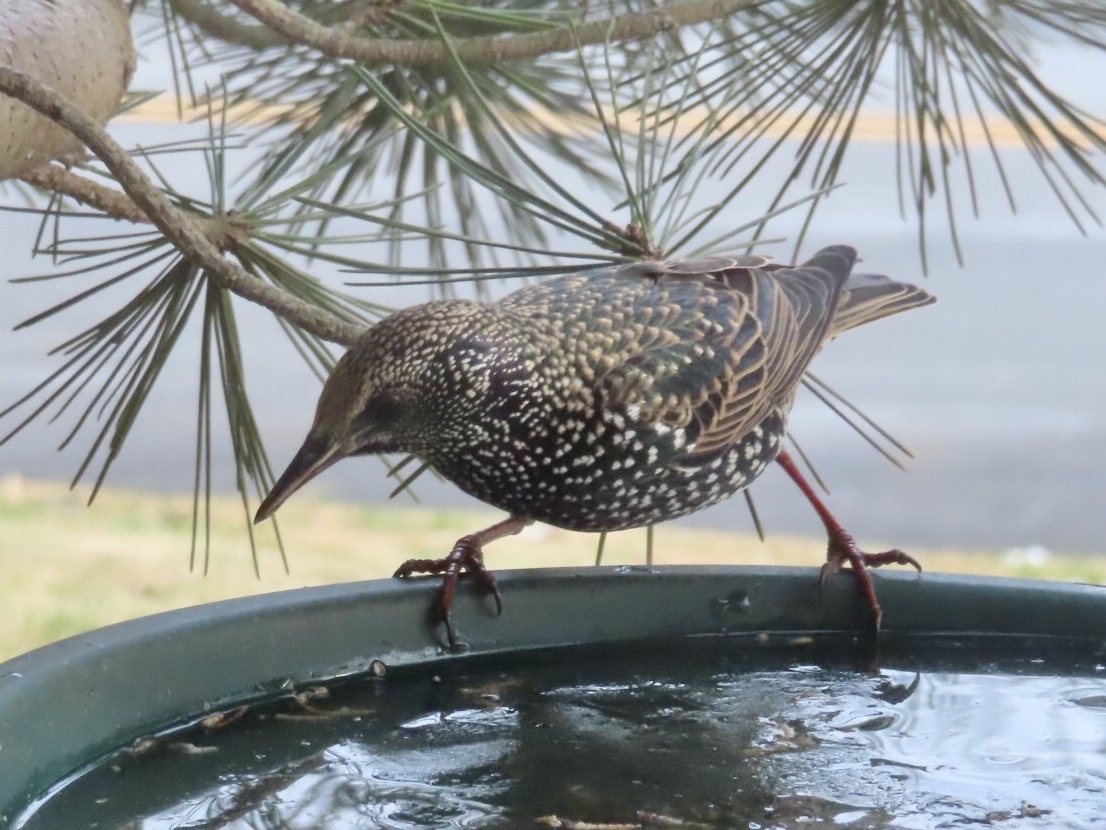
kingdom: Animalia
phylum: Chordata
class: Aves
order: Passeriformes
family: Sturnidae
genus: Sturnus
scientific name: Sturnus vulgaris
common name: Common starling
